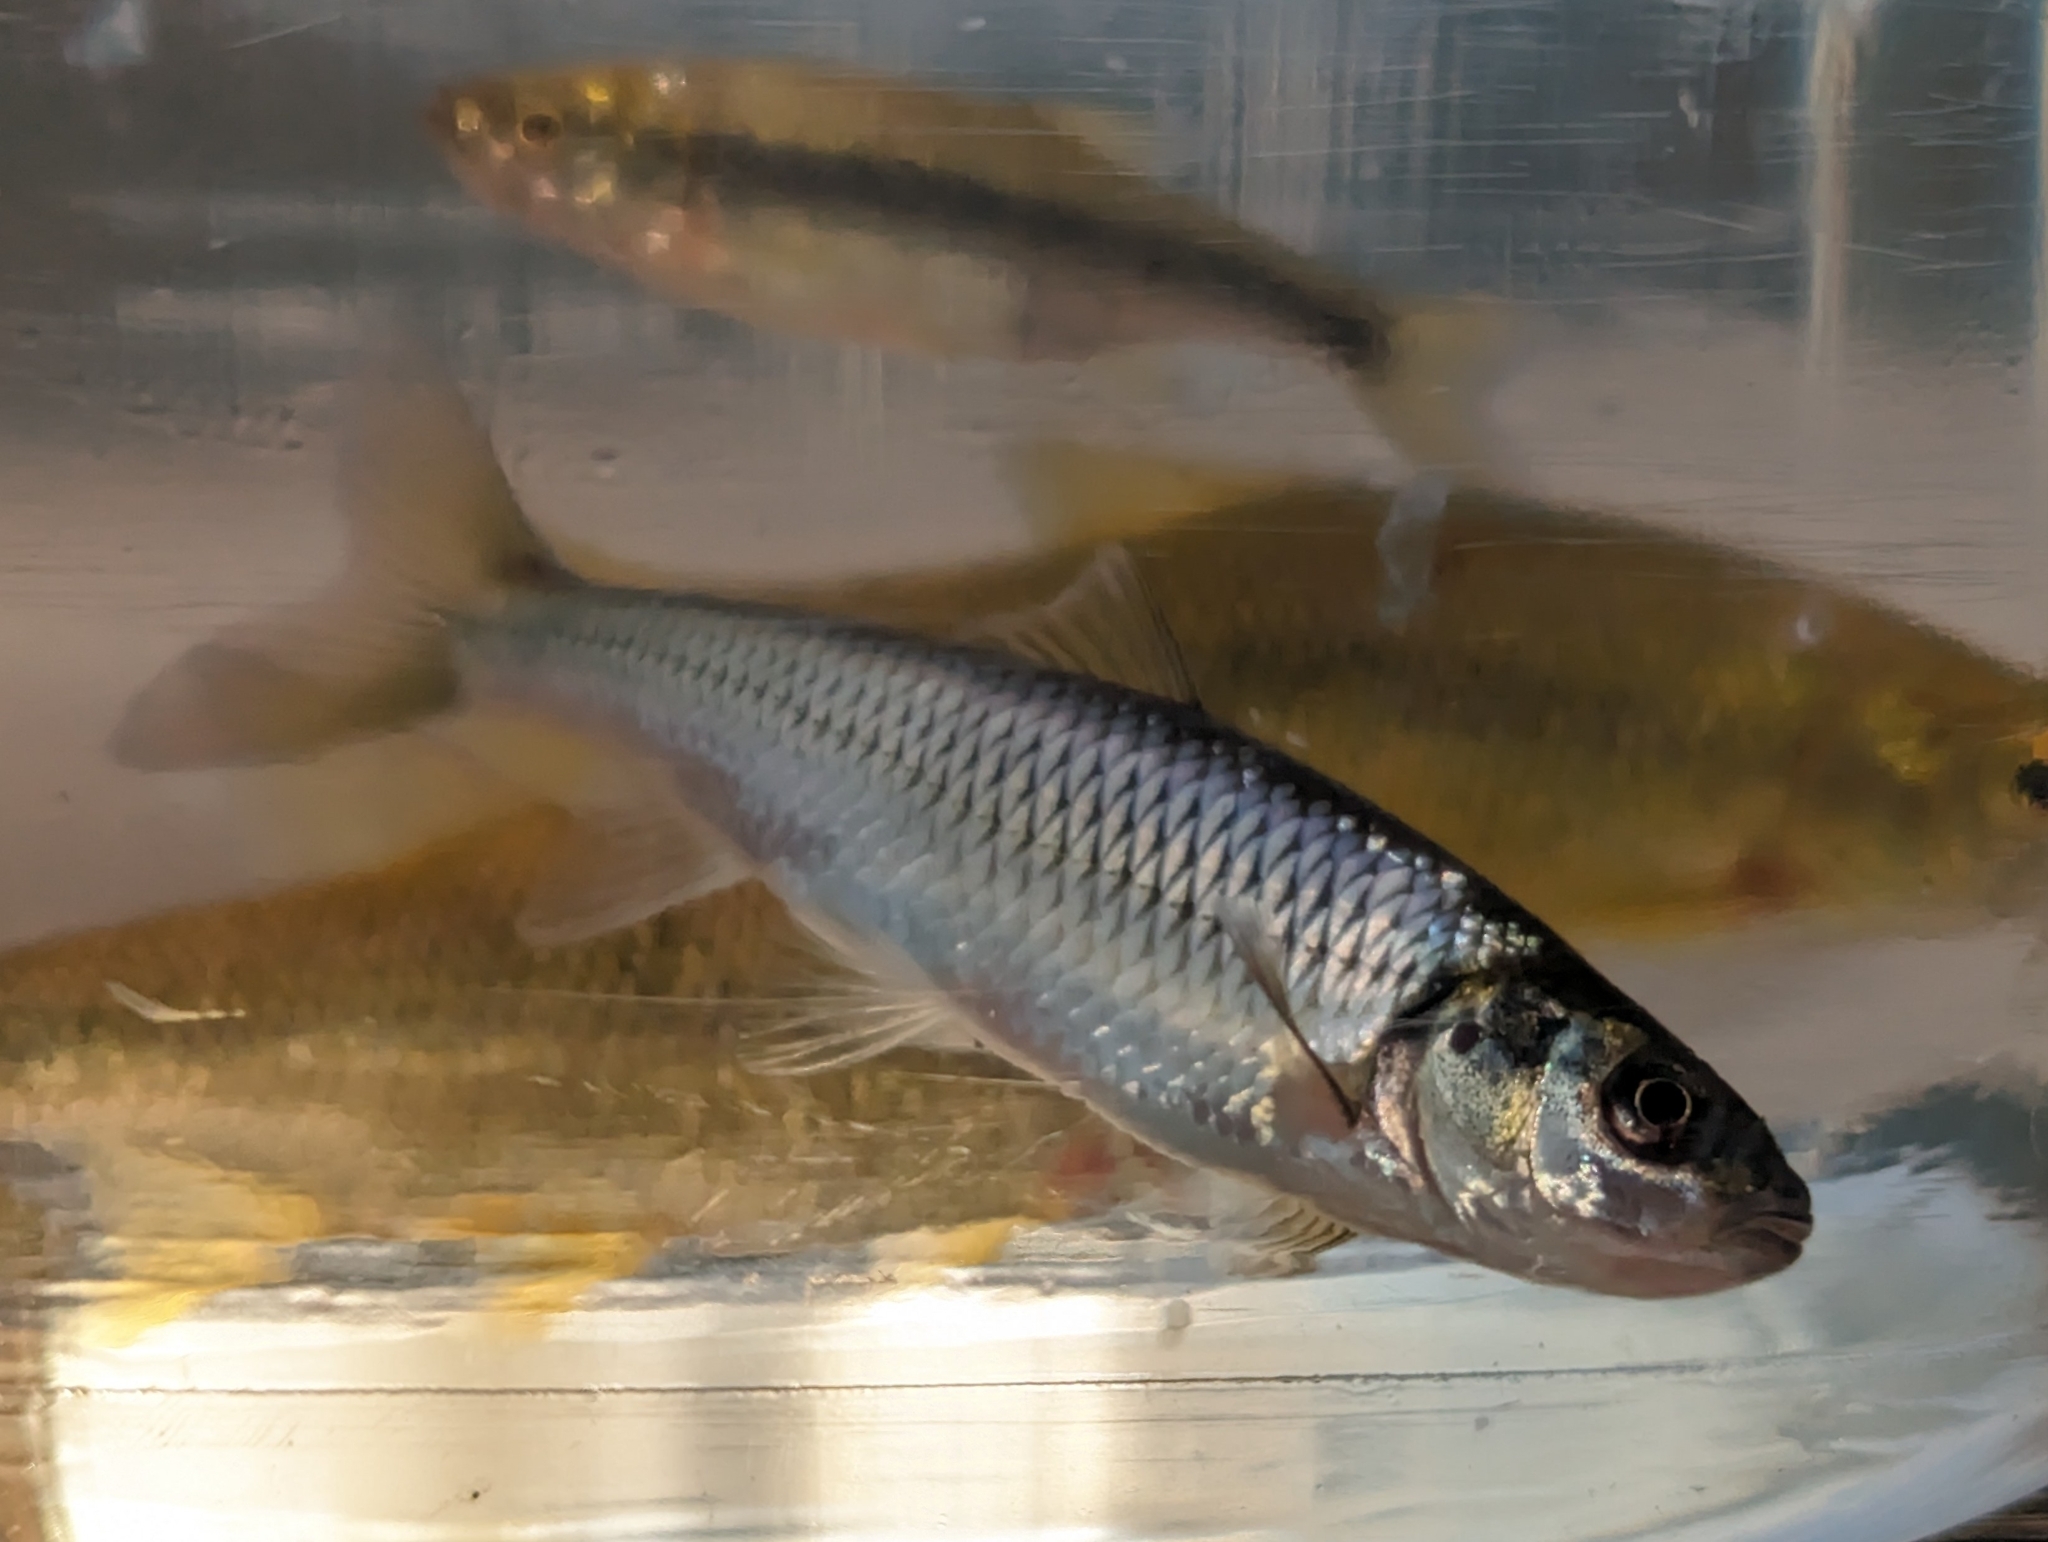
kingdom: Animalia
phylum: Chordata
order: Cypriniformes
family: Cyprinidae
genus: Semotilus
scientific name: Semotilus corporalis
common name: Fallfish
